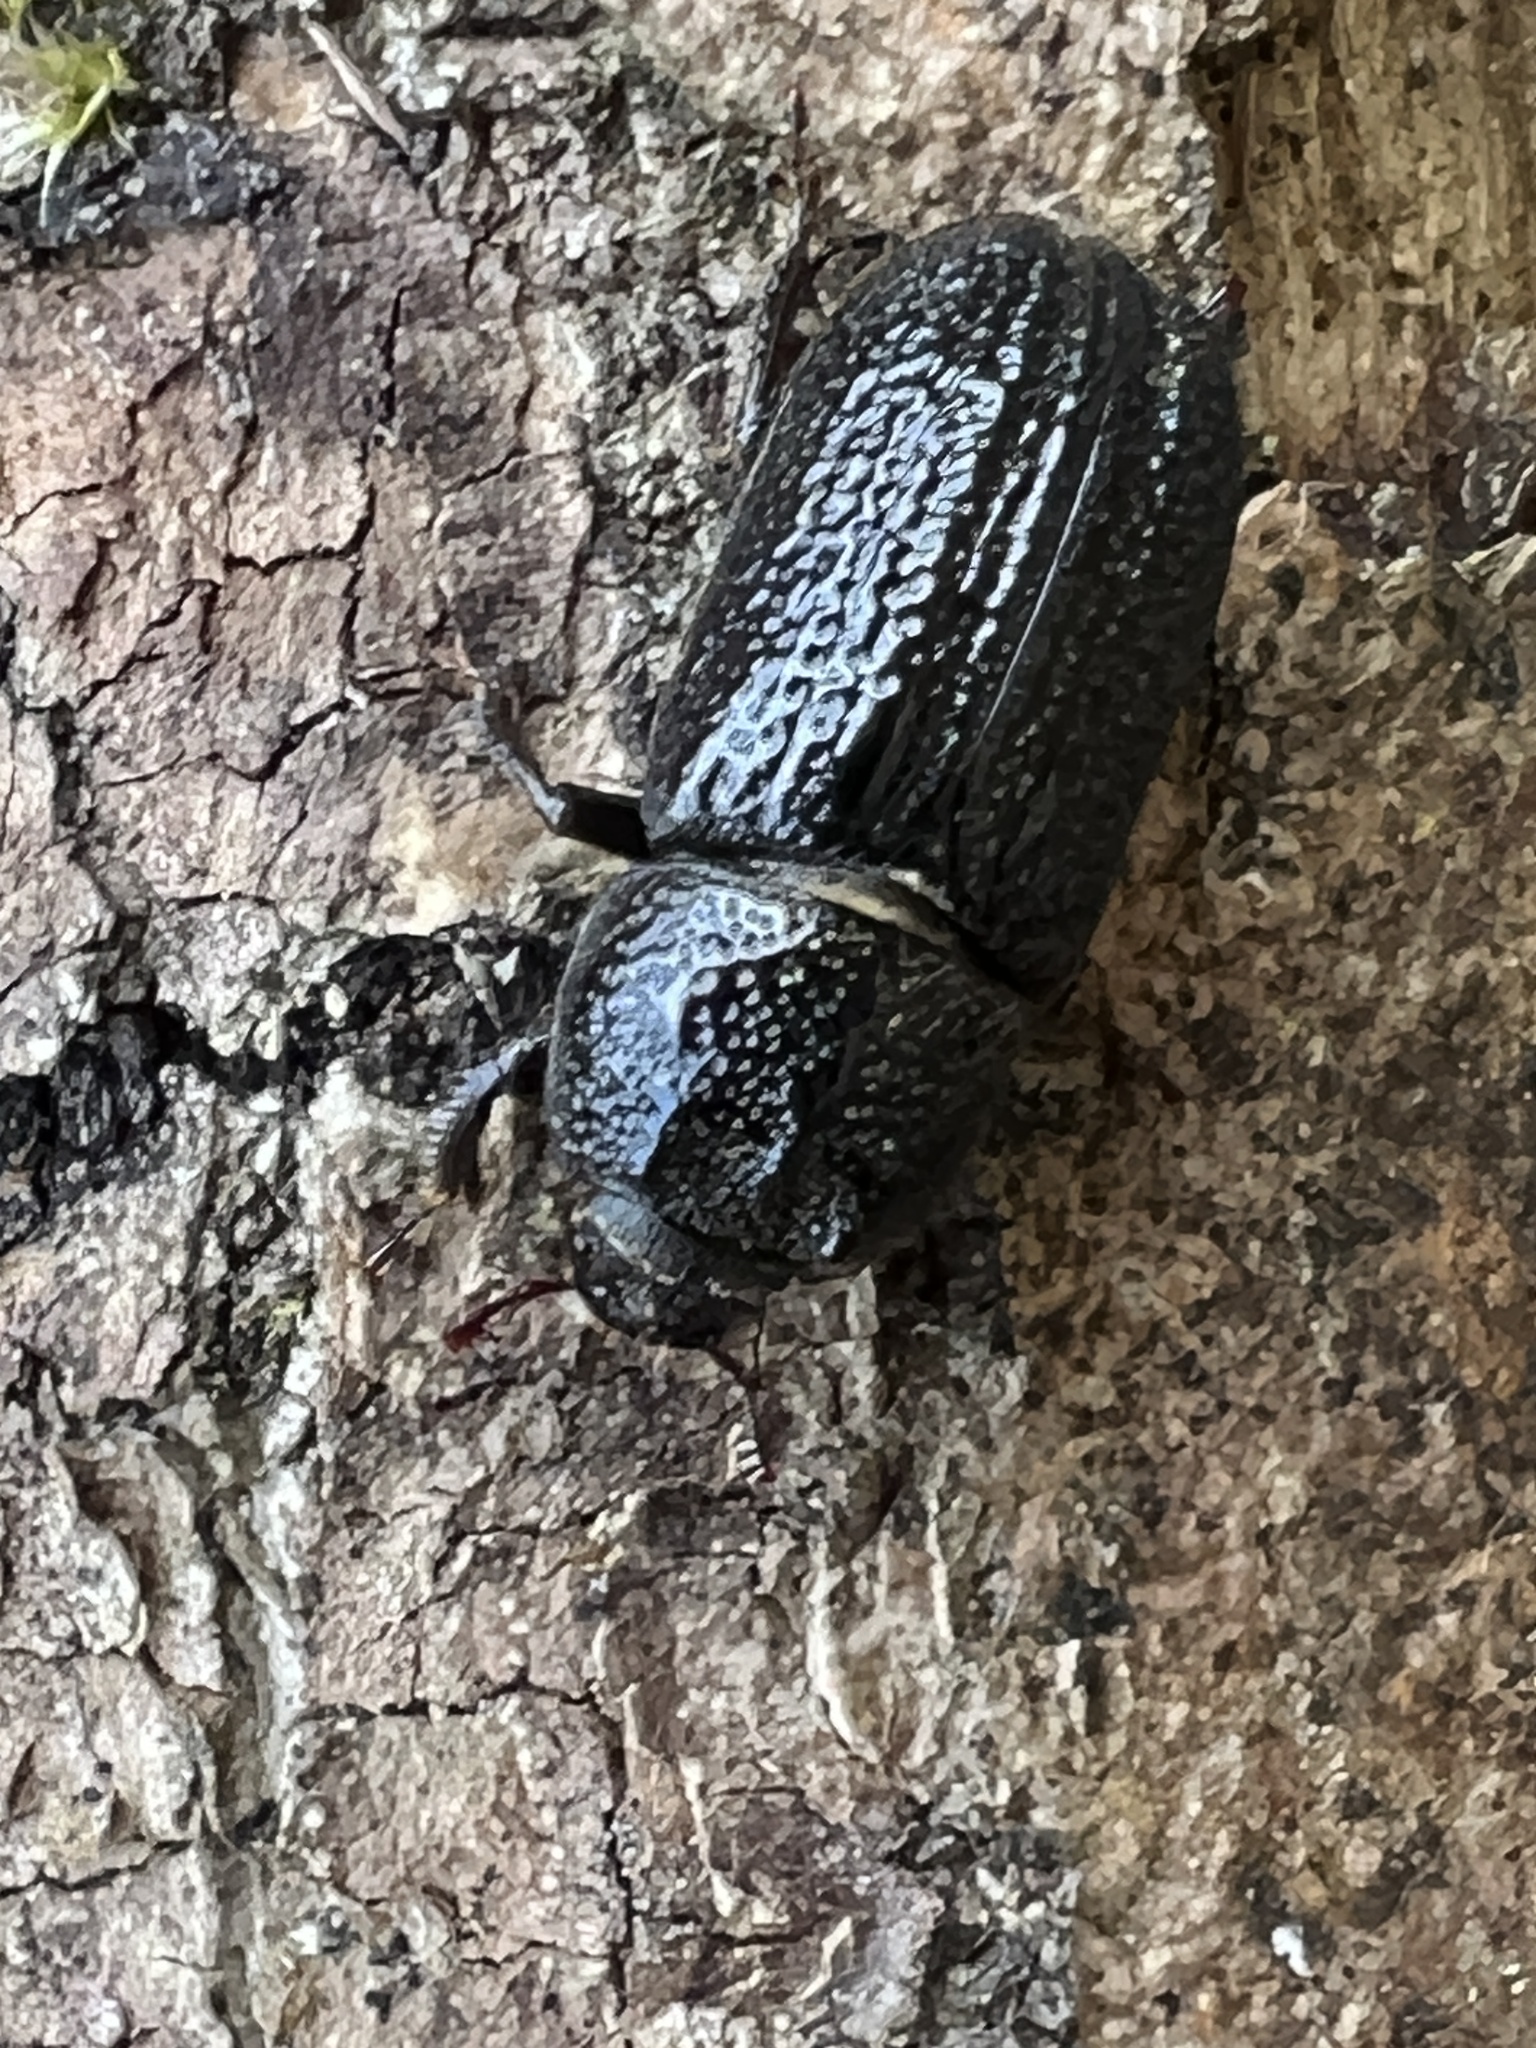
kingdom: Animalia
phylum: Arthropoda
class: Insecta
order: Coleoptera
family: Lucanidae
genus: Sinodendron
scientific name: Sinodendron cylindricum
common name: Rhinoceros beetle
